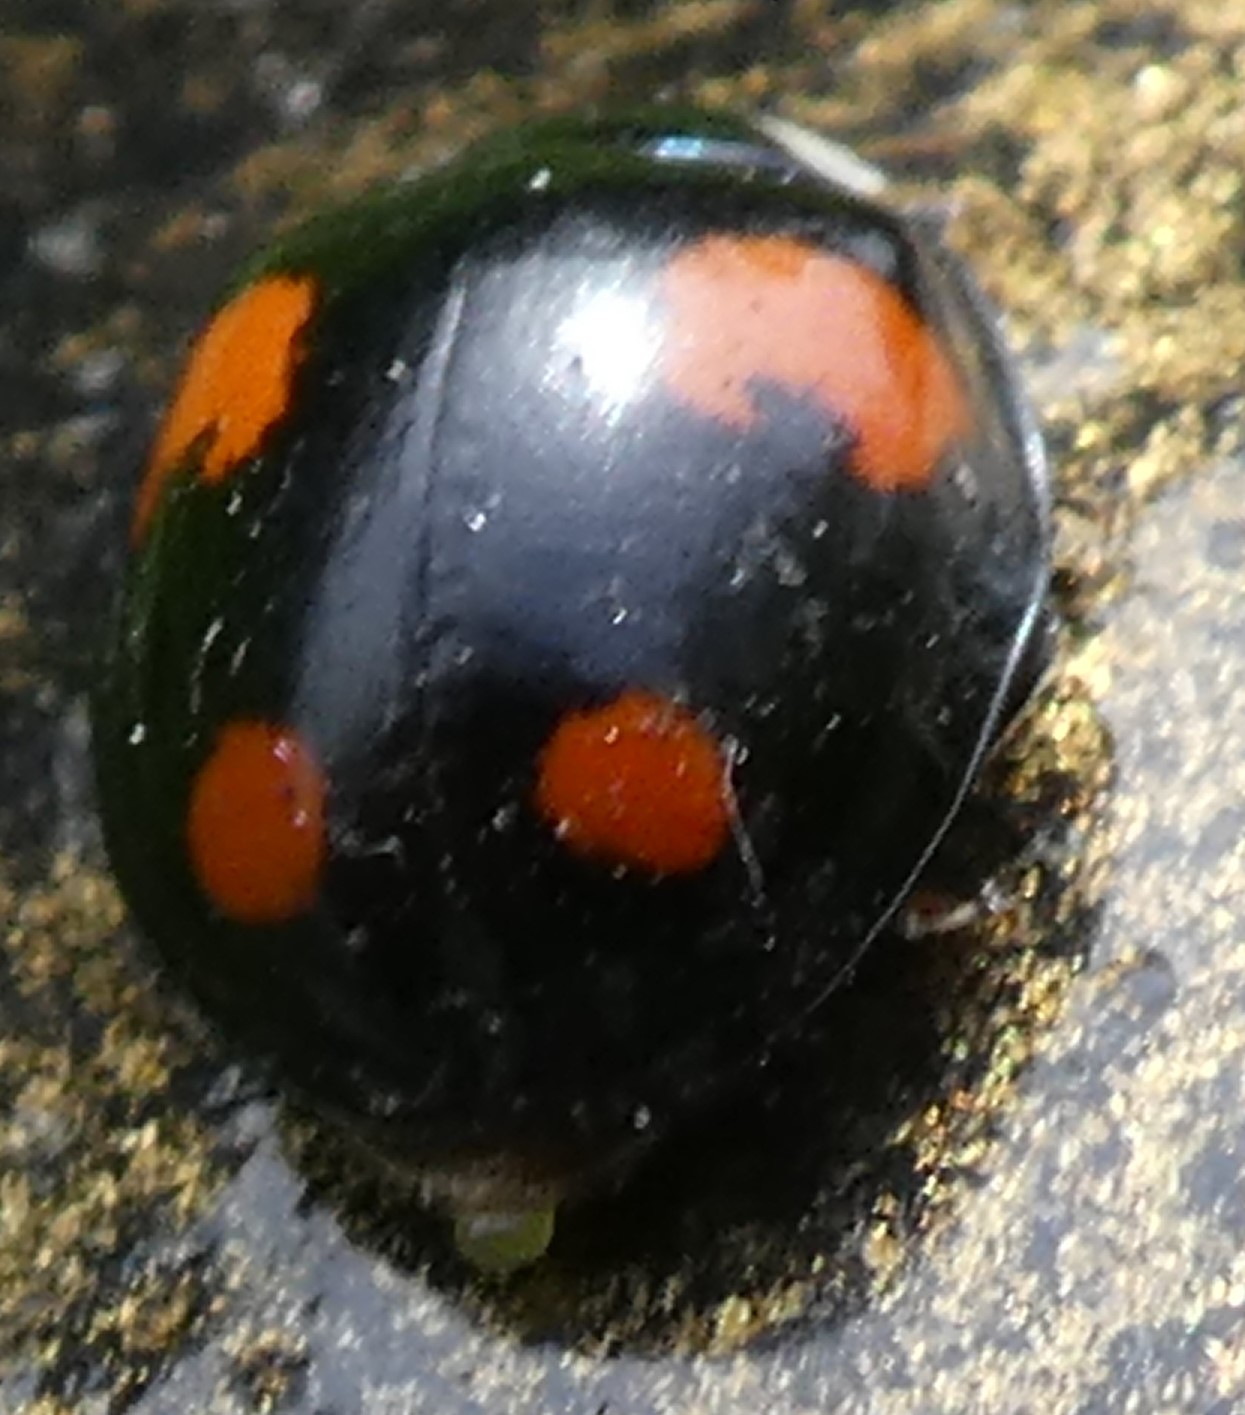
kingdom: Animalia
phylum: Arthropoda
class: Insecta
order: Coleoptera
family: Coccinellidae
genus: Harmonia
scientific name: Harmonia axyridis
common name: Harlequin ladybird
